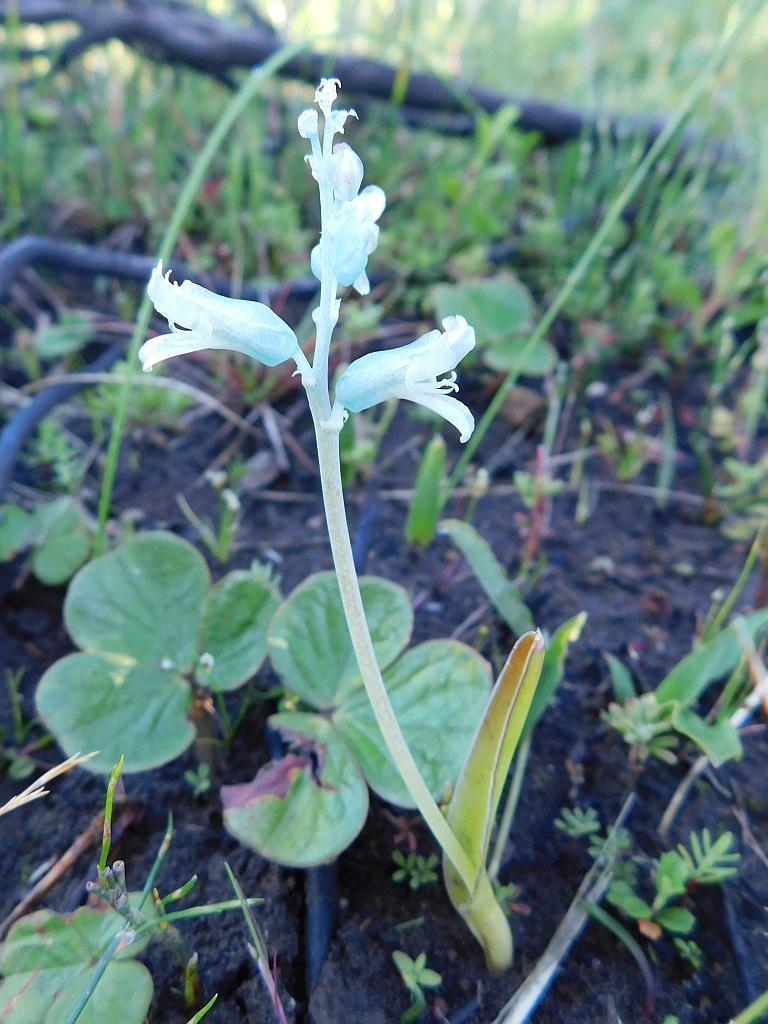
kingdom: Plantae
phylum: Tracheophyta
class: Liliopsida
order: Asparagales
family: Asparagaceae
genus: Lachenalia
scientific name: Lachenalia judithiae
